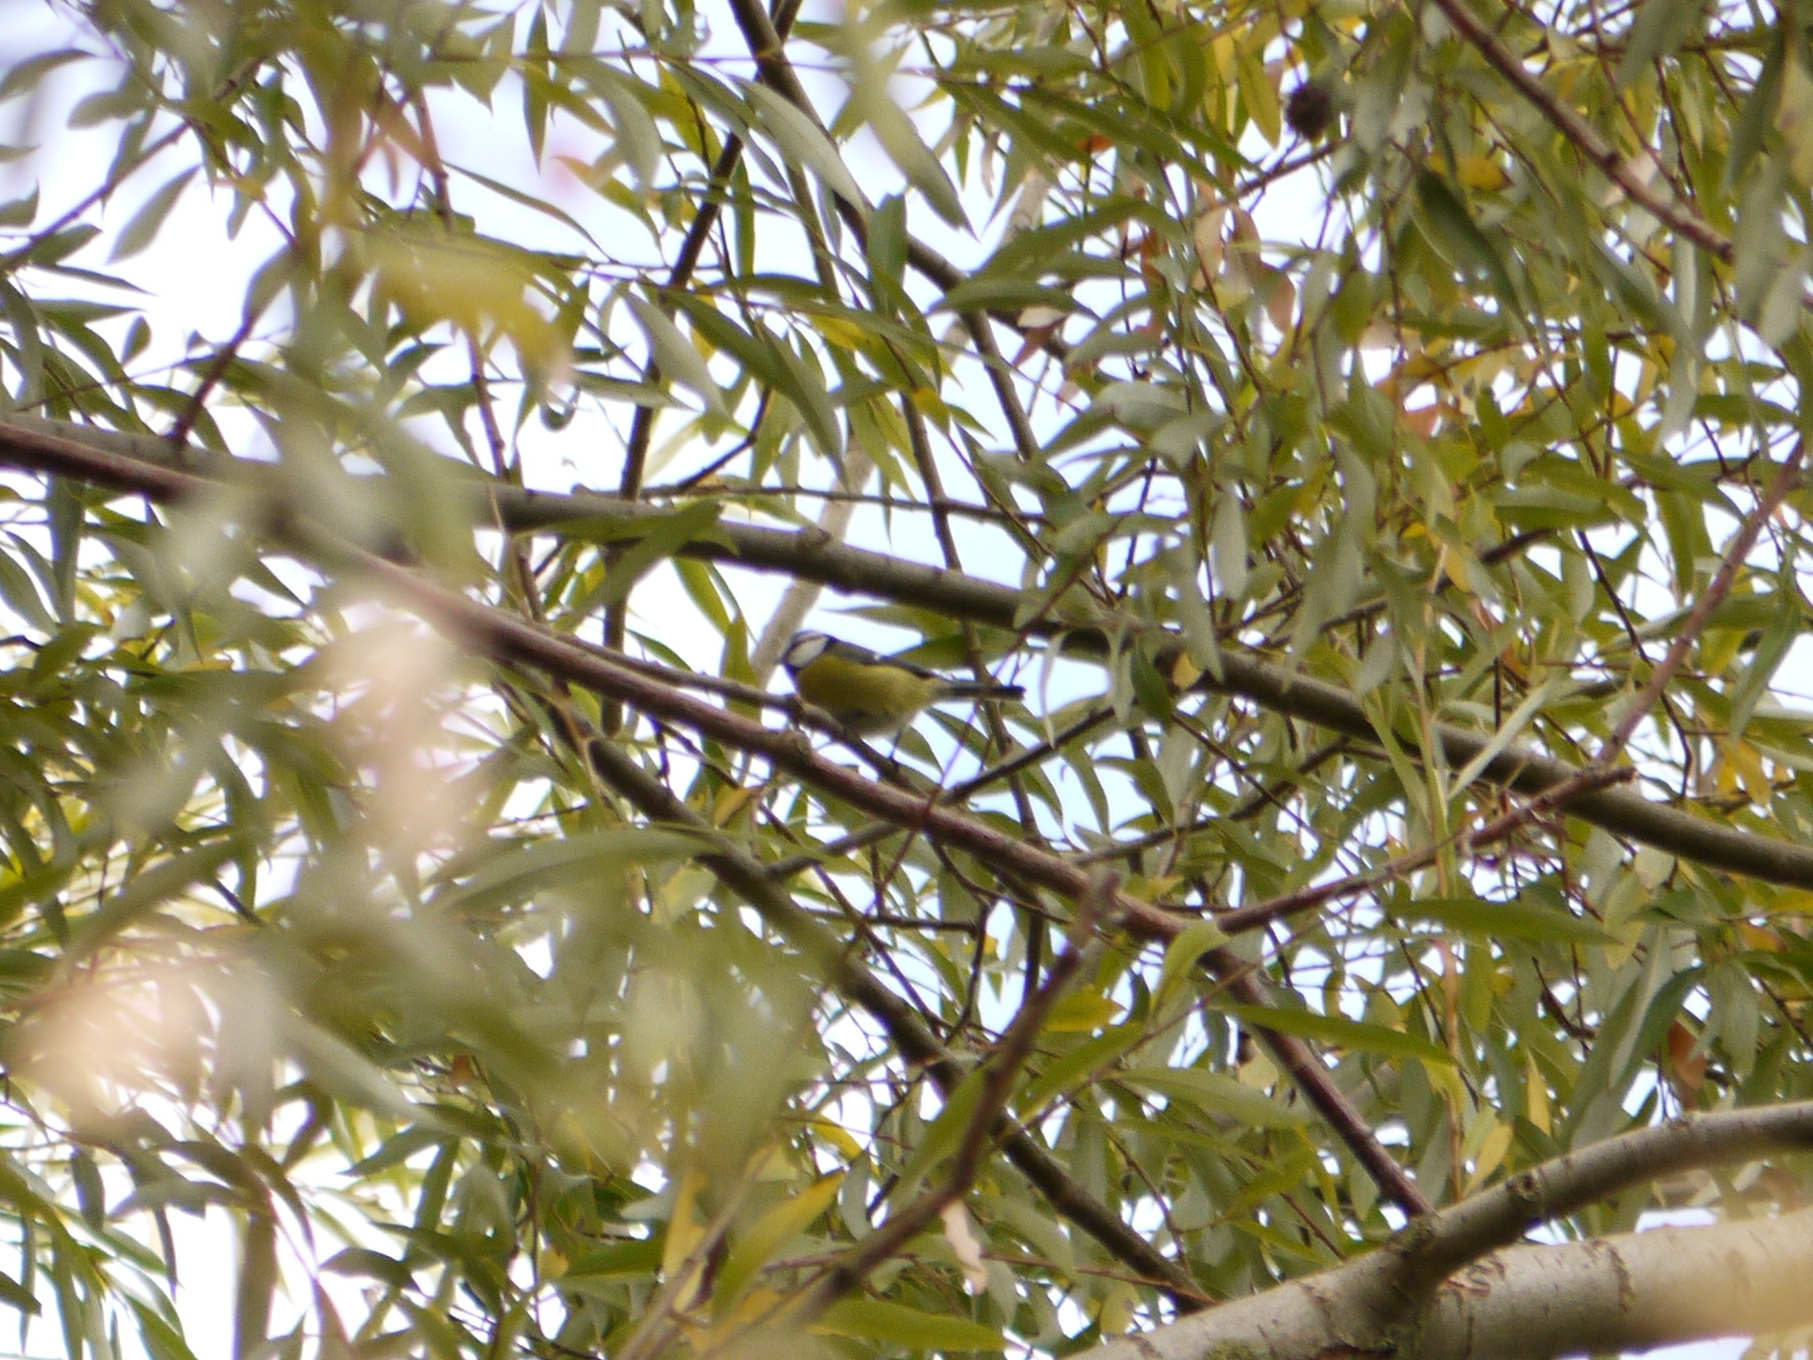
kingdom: Animalia
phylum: Chordata
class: Aves
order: Passeriformes
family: Paridae
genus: Cyanistes
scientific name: Cyanistes caeruleus
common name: Eurasian blue tit
